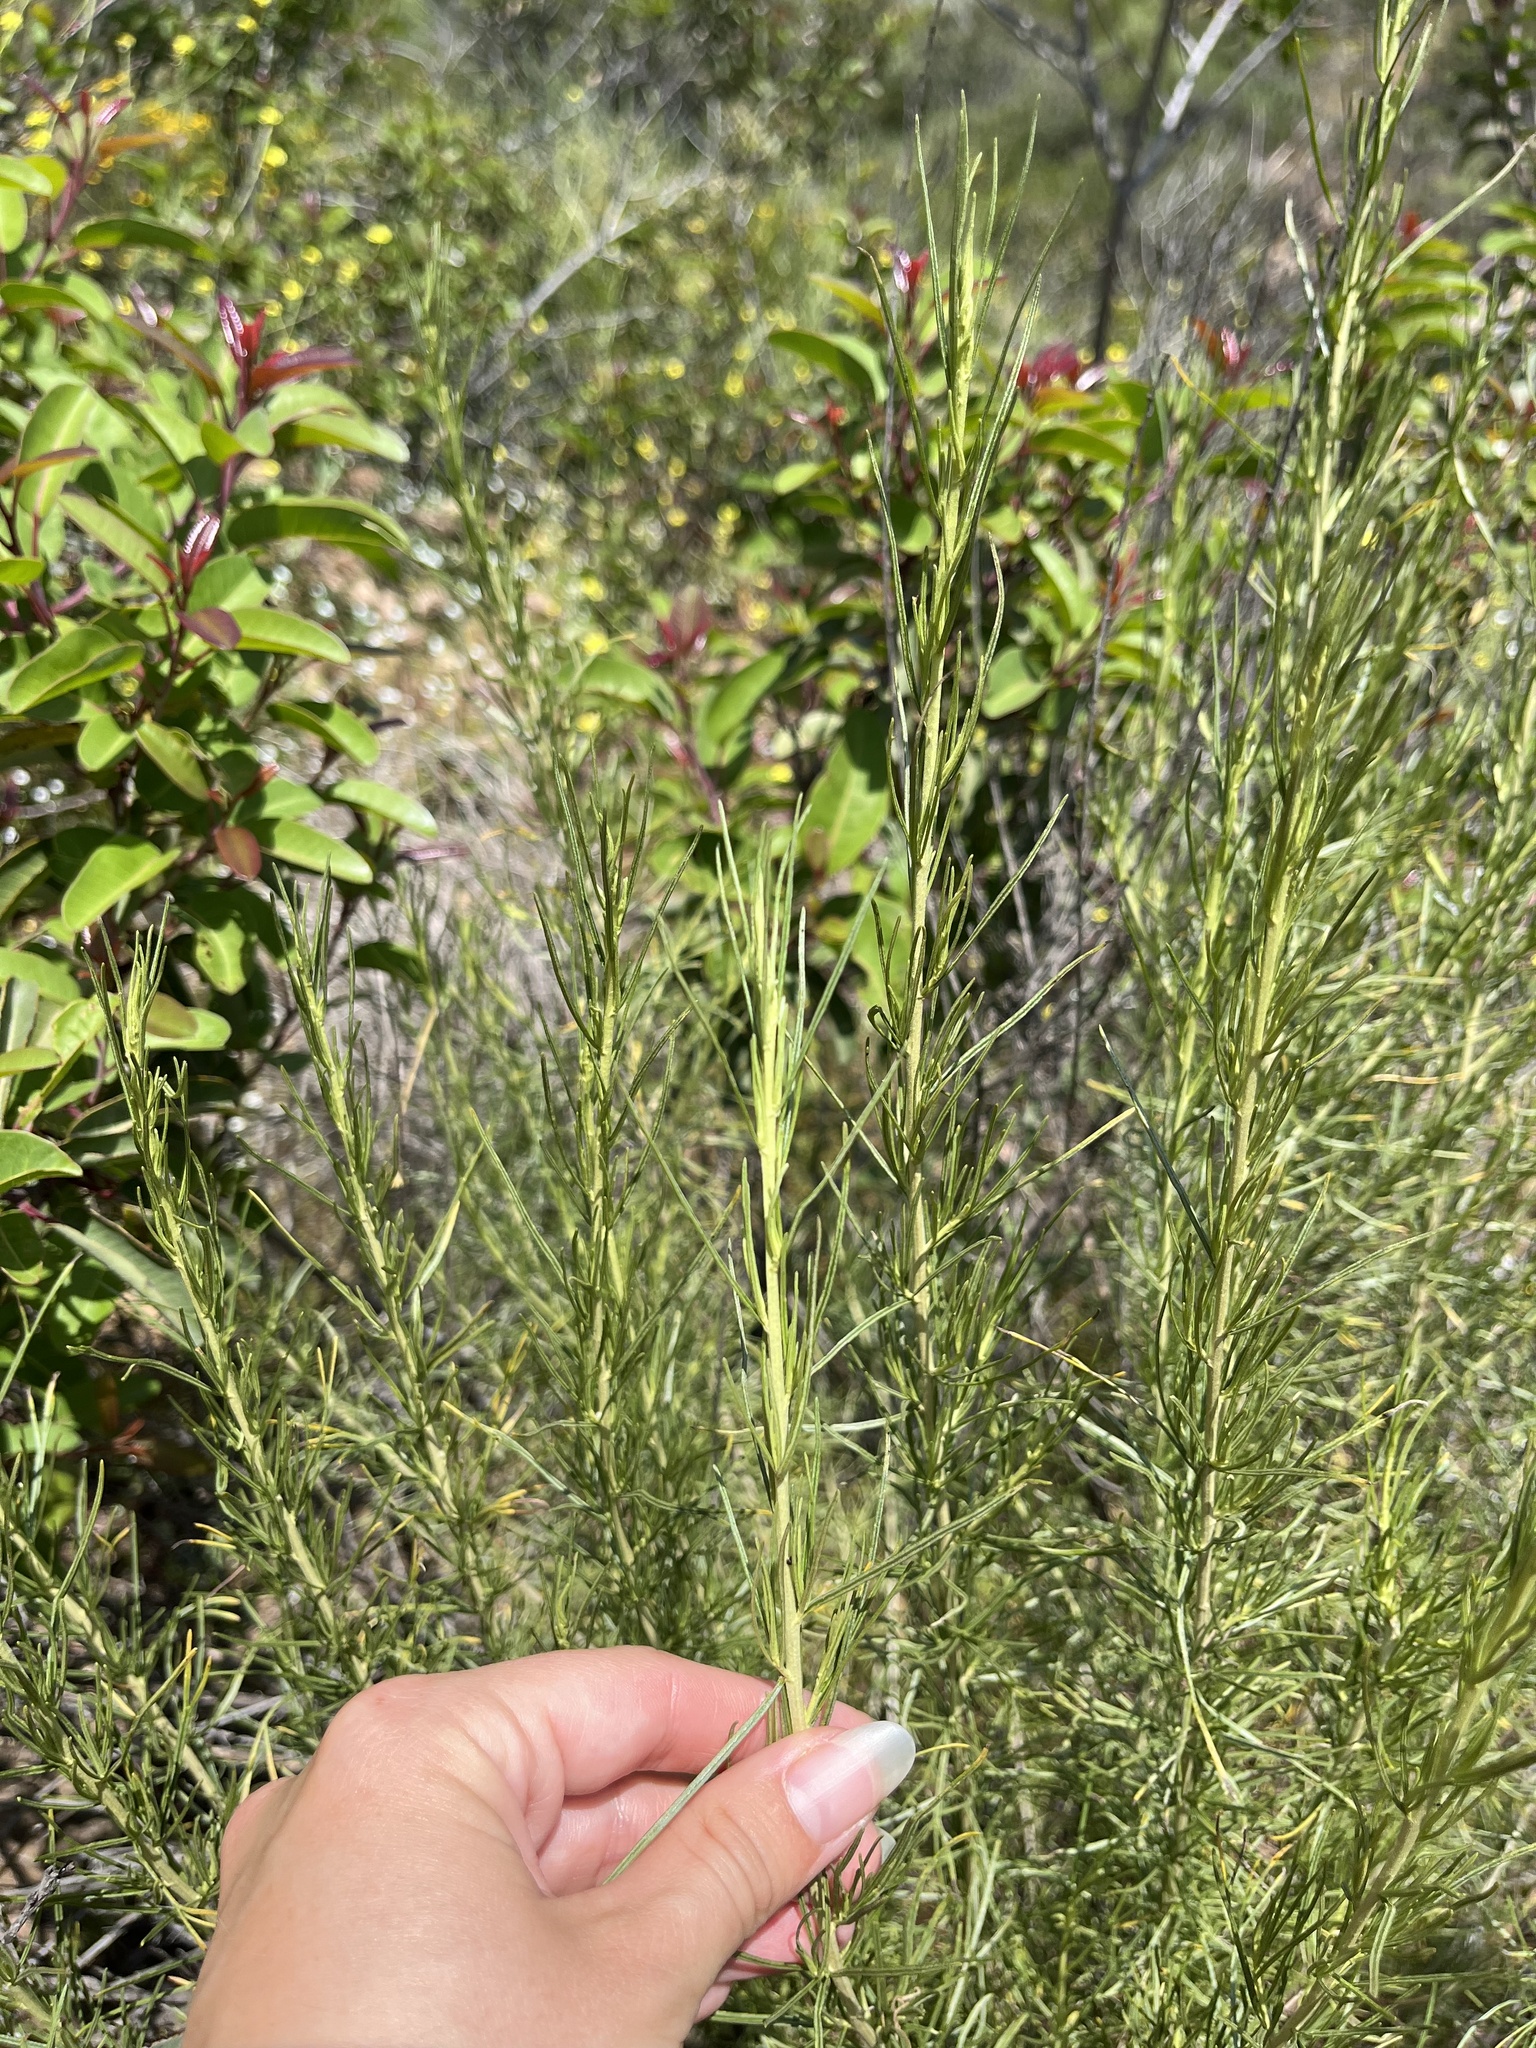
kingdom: Plantae
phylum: Tracheophyta
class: Magnoliopsida
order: Asterales
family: Asteraceae
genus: Artemisia
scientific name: Artemisia californica
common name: California sagebrush
